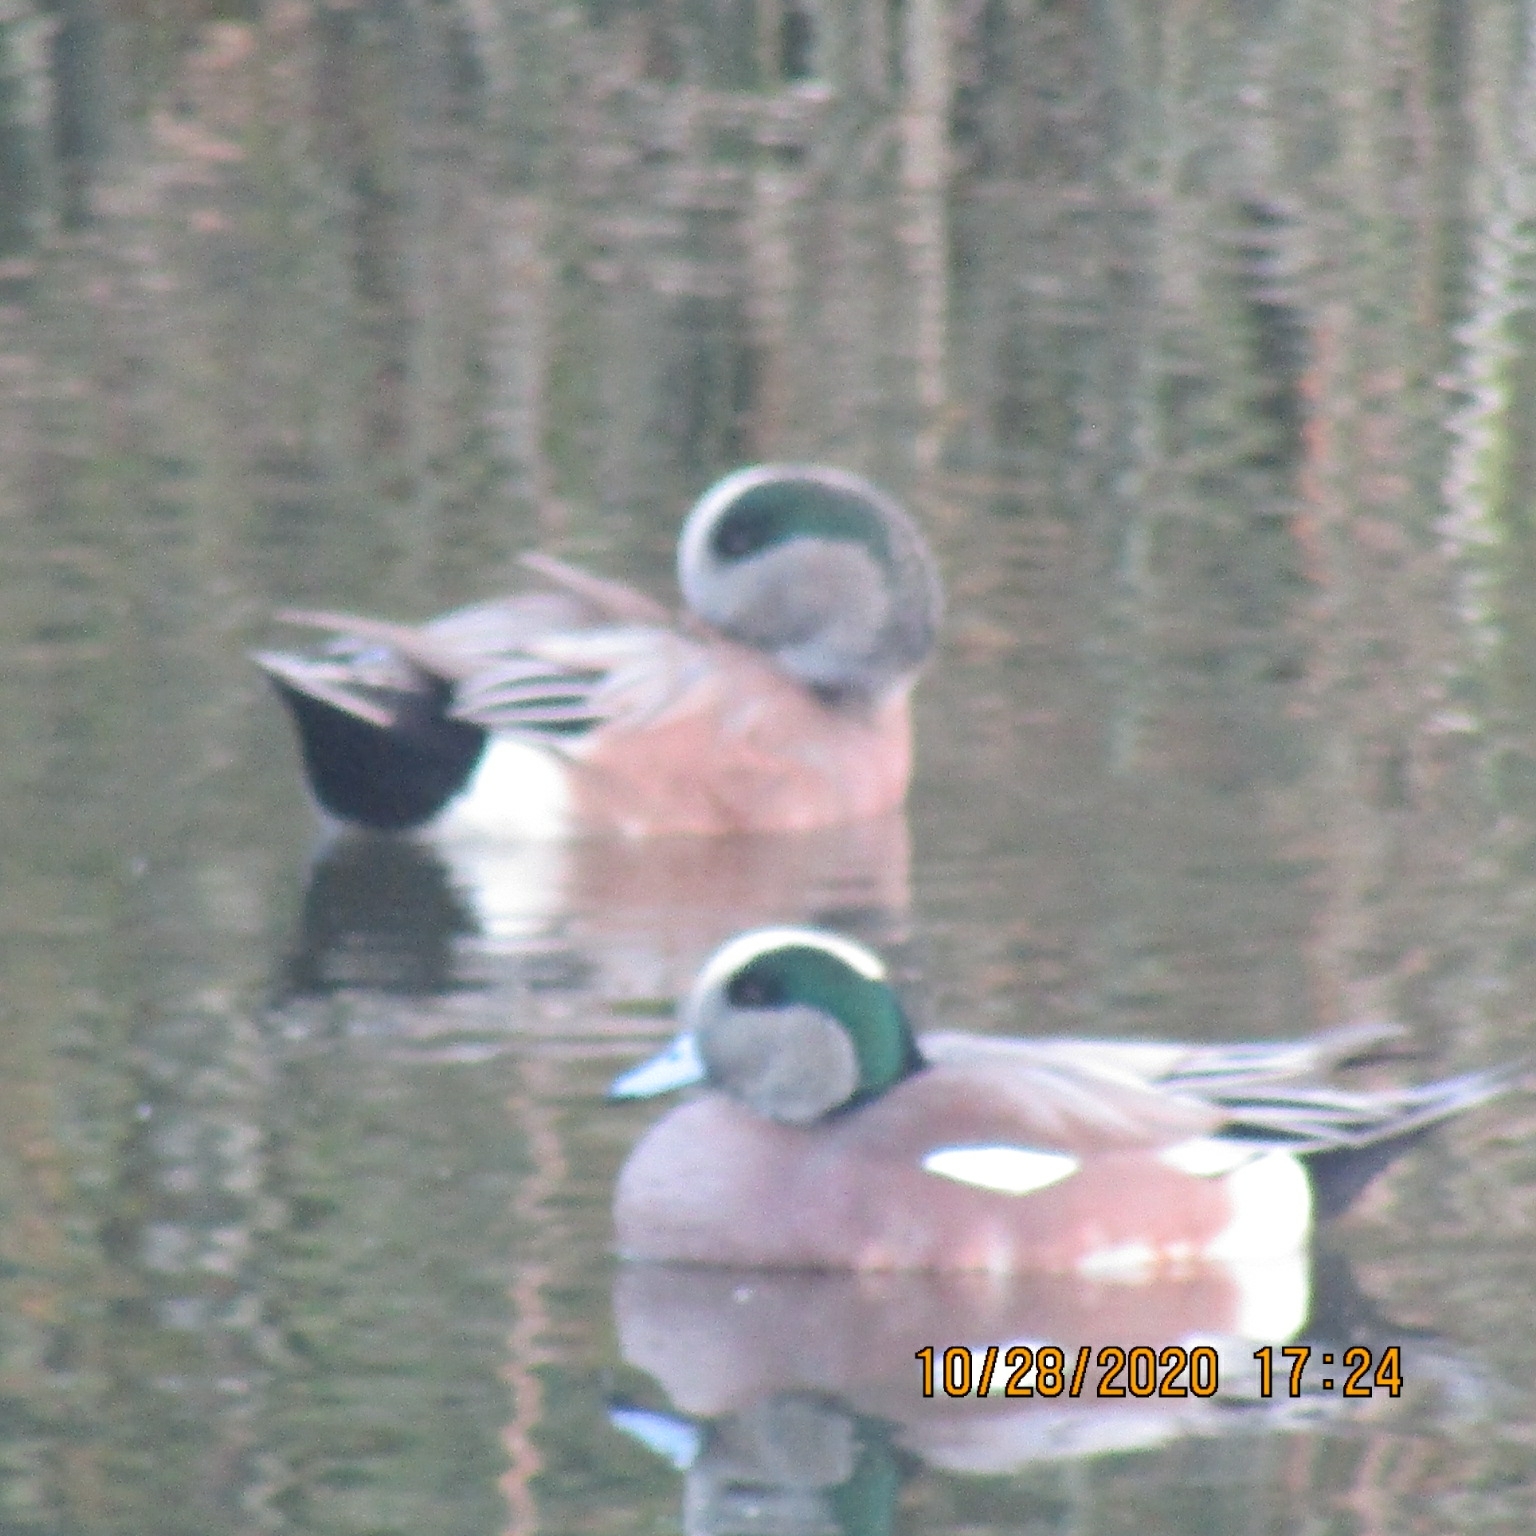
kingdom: Animalia
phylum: Chordata
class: Aves
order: Anseriformes
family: Anatidae
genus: Mareca
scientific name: Mareca americana
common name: American wigeon
